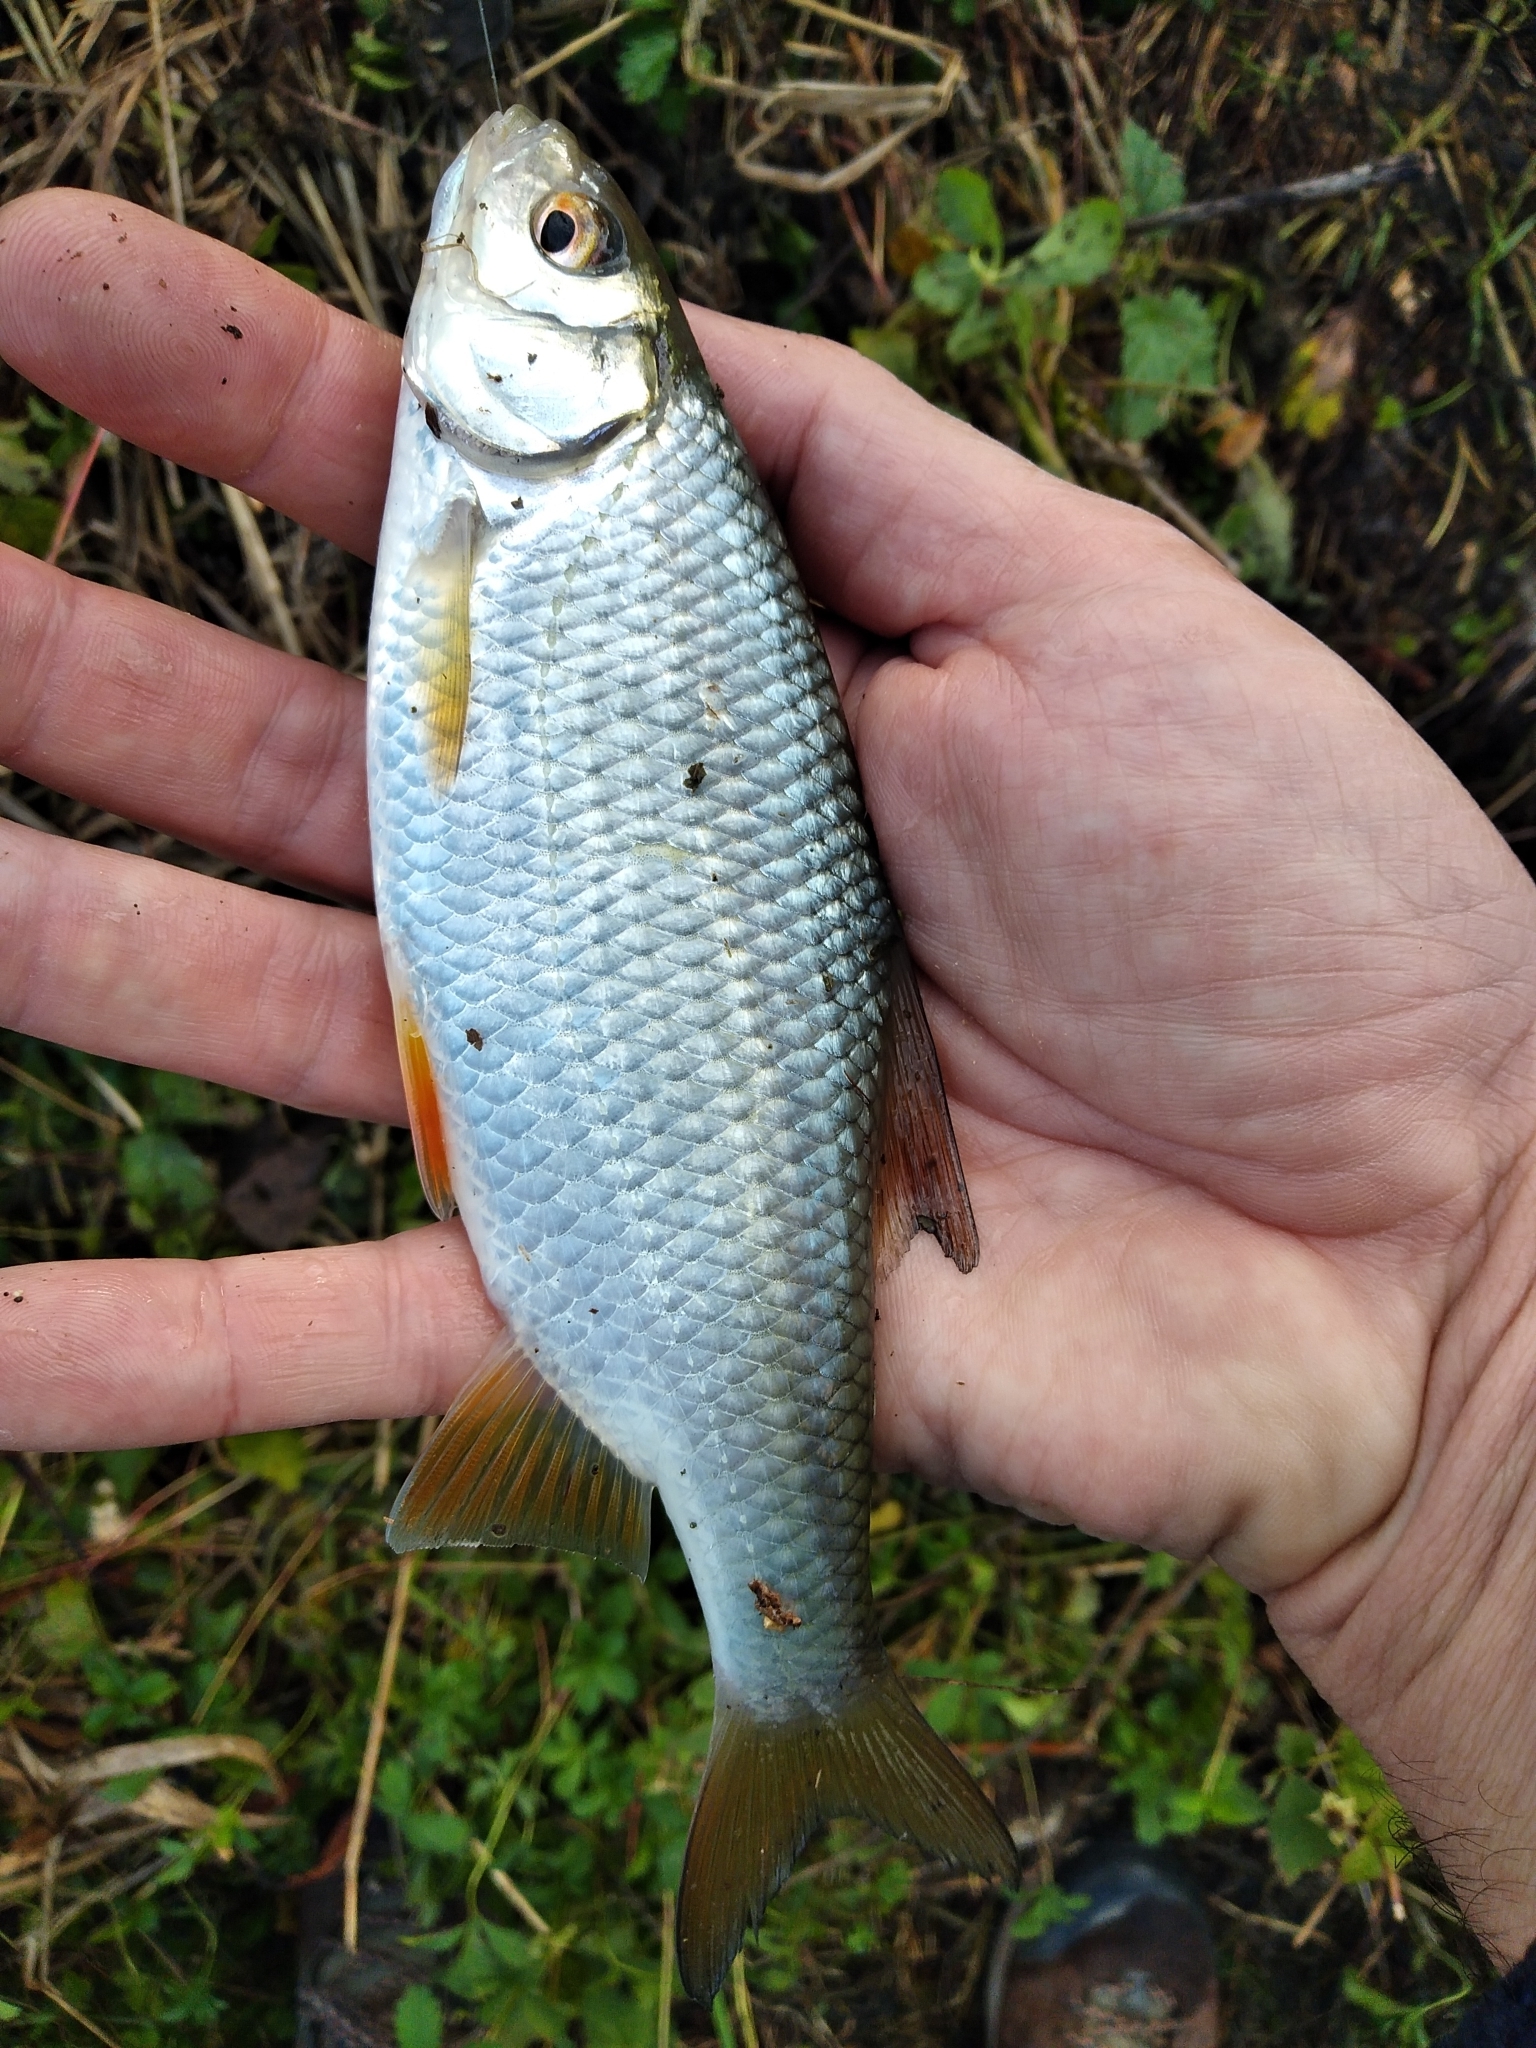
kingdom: Animalia
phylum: Chordata
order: Cypriniformes
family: Cyprinidae
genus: Rutilus
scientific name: Rutilus rutilus
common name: Roach
